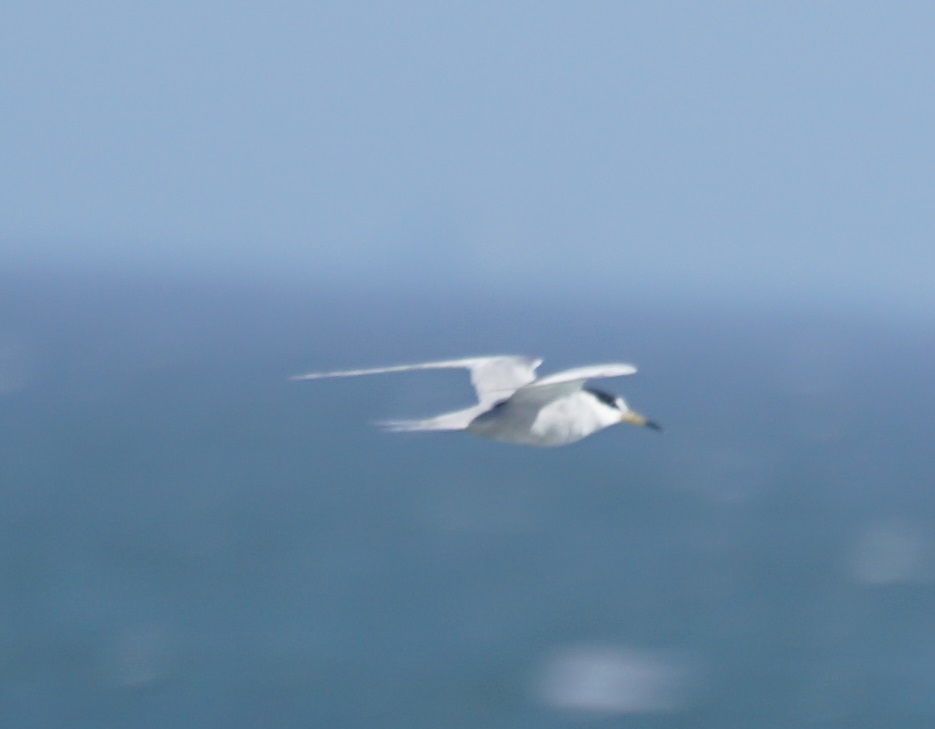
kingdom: Animalia
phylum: Chordata
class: Aves
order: Charadriiformes
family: Laridae
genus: Sternula
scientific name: Sternula lorata
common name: Peruvian tern
